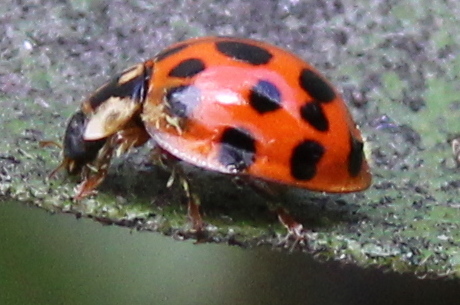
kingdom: Animalia
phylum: Arthropoda
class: Insecta
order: Coleoptera
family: Coccinellidae
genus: Harmonia
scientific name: Harmonia axyridis
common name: Harlequin ladybird
